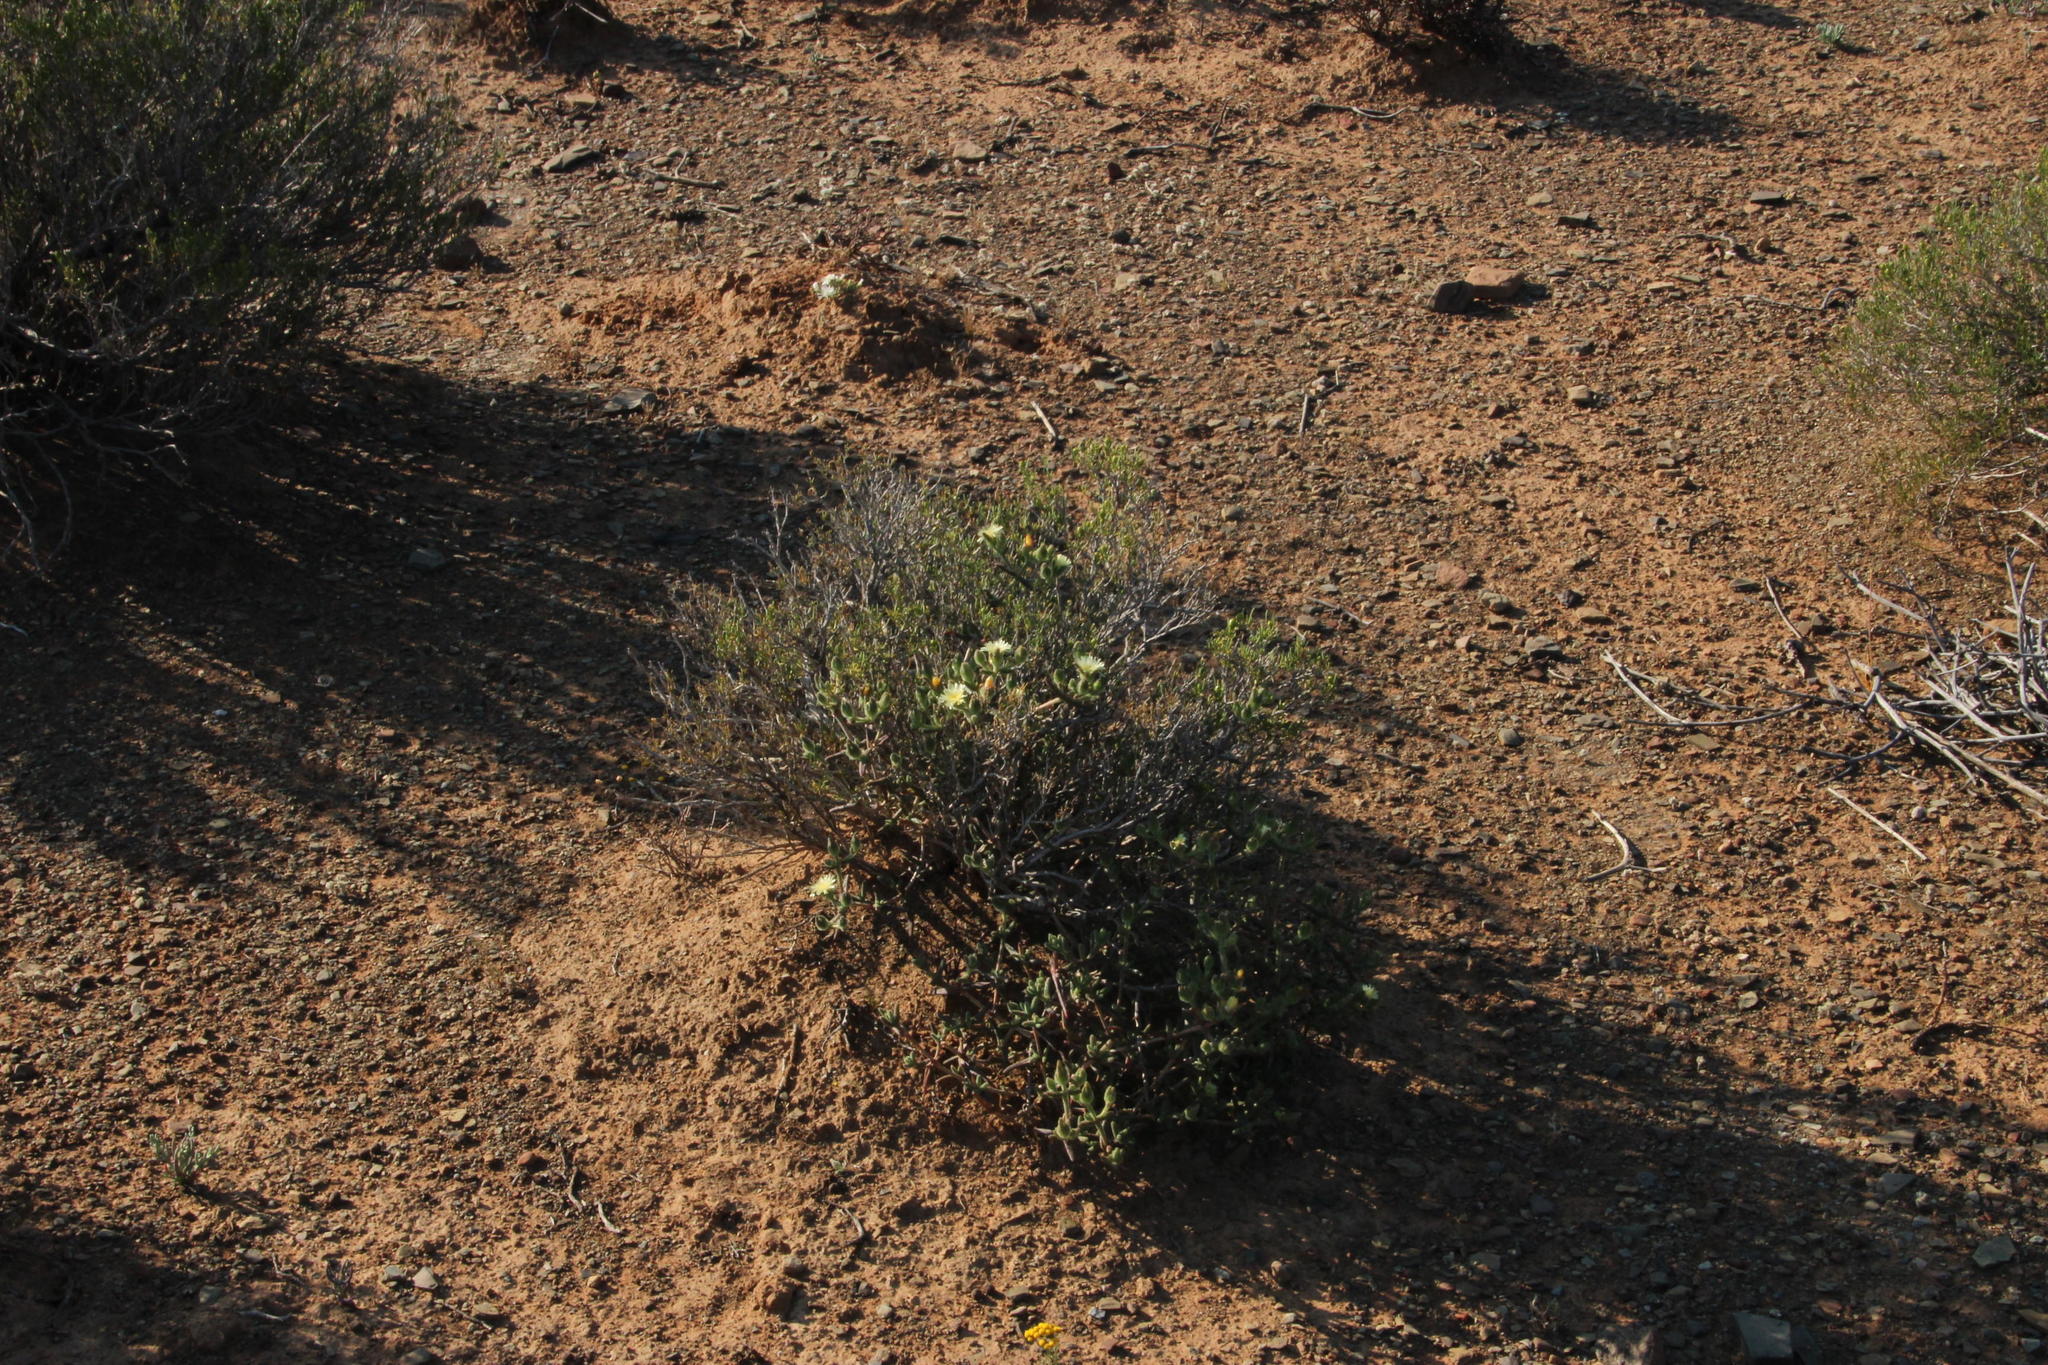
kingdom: Plantae
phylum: Tracheophyta
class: Magnoliopsida
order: Caryophyllales
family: Aizoaceae
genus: Mesembryanthemum
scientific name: Mesembryanthemum nitidum
